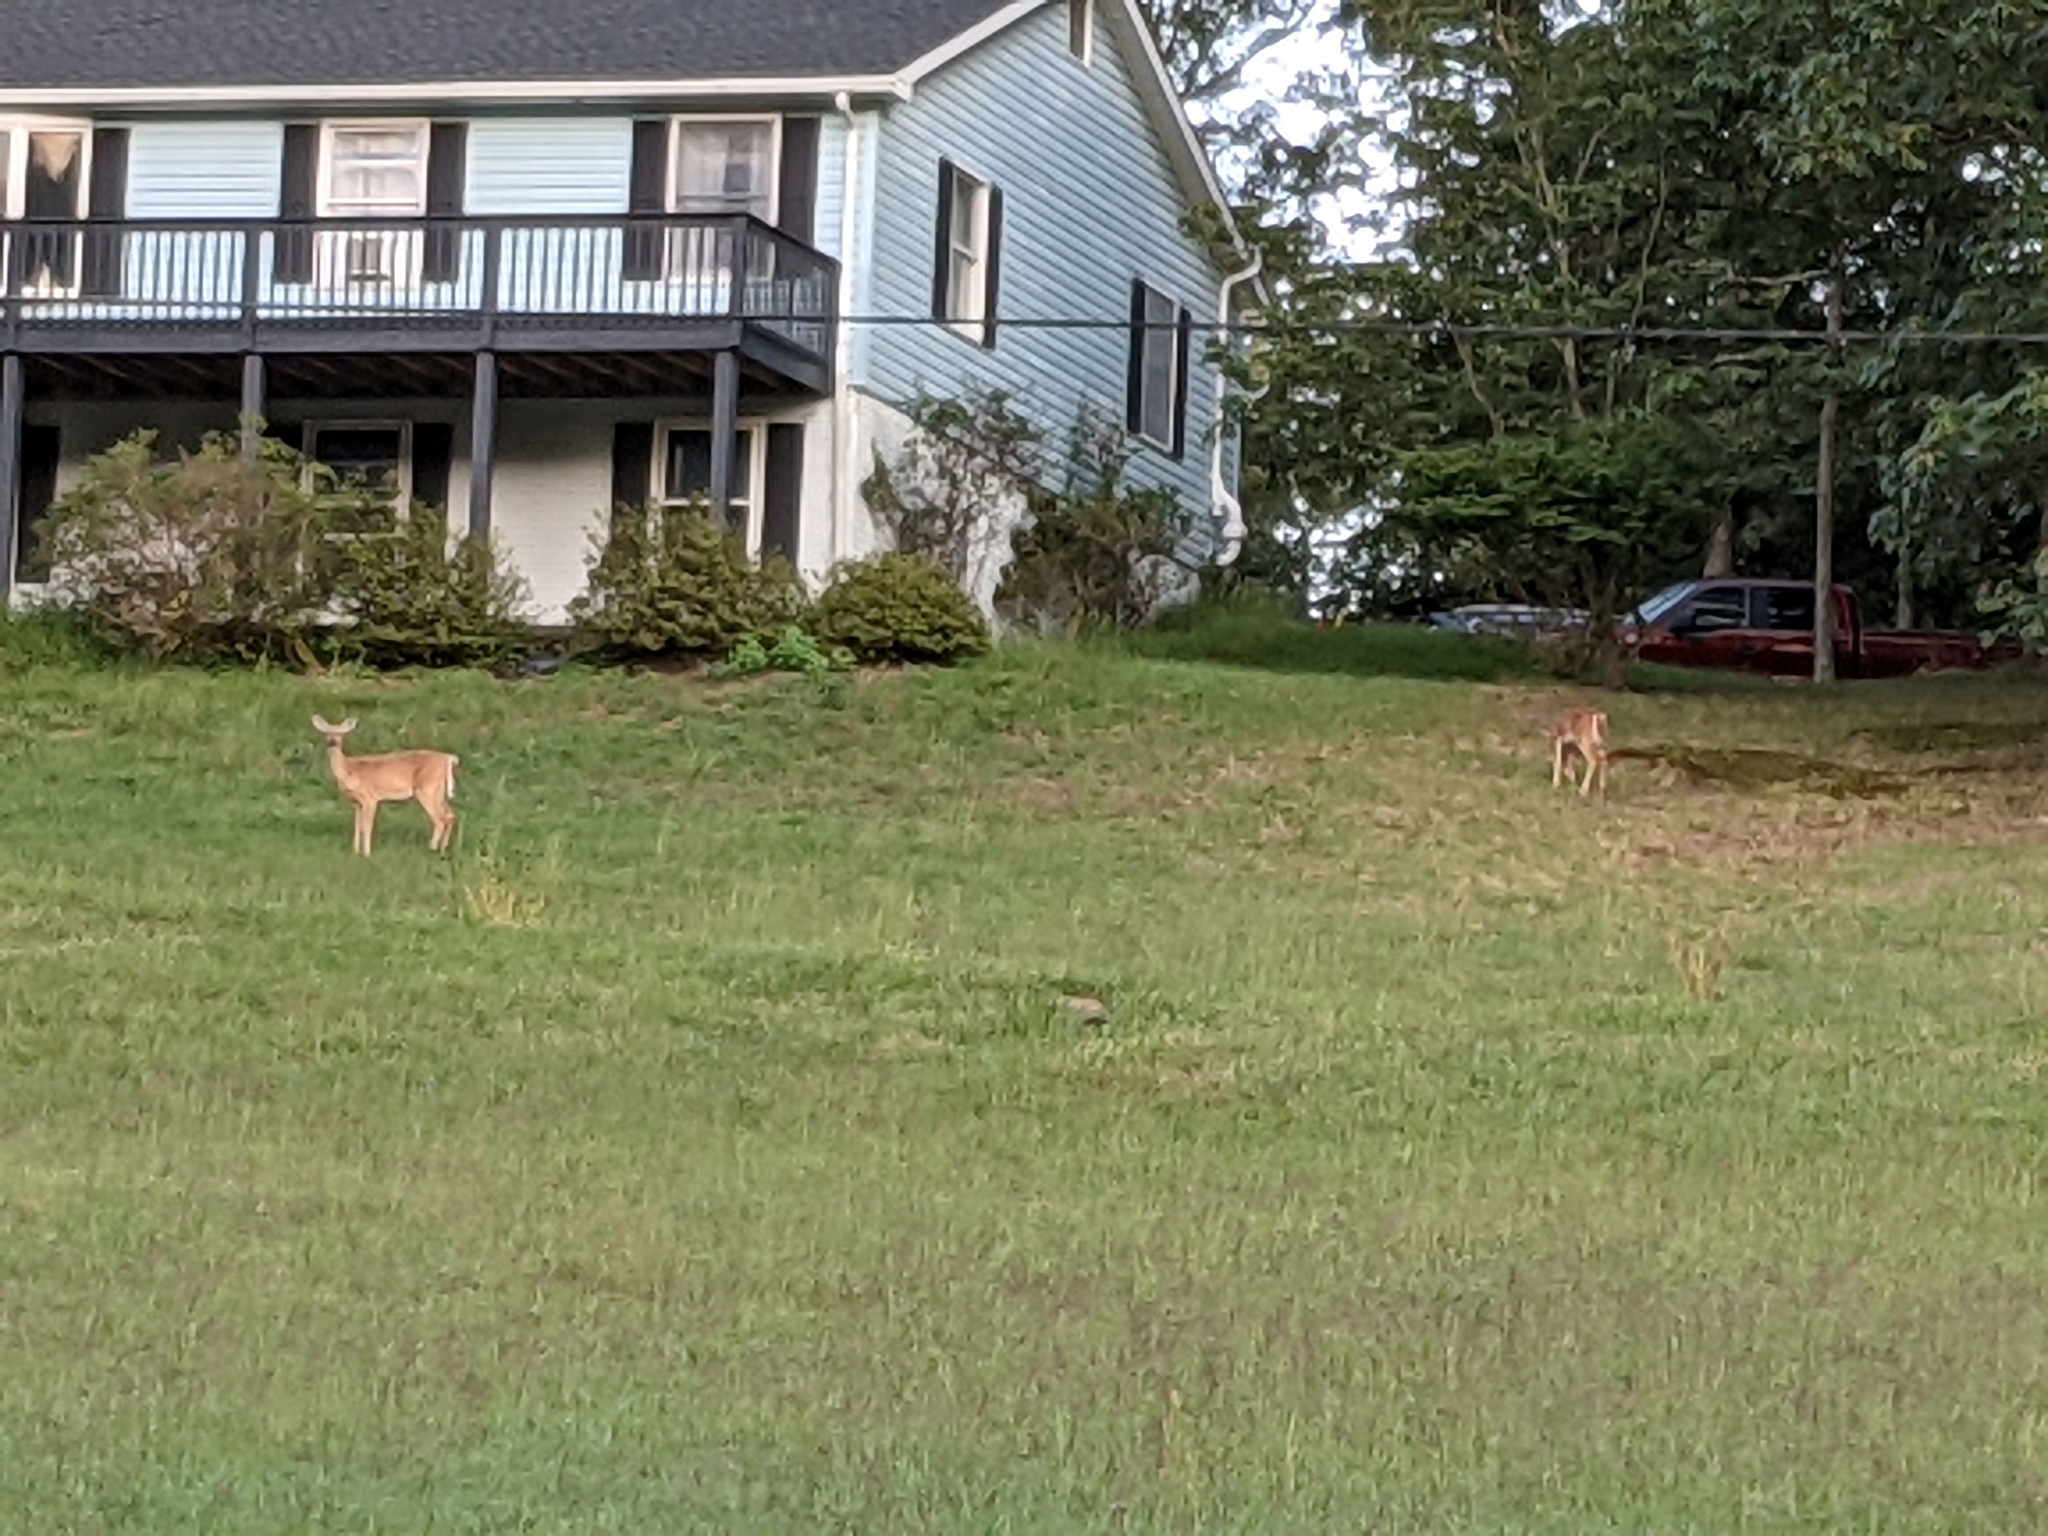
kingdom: Animalia
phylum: Chordata
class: Mammalia
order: Artiodactyla
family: Cervidae
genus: Odocoileus
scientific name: Odocoileus virginianus
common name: White-tailed deer
